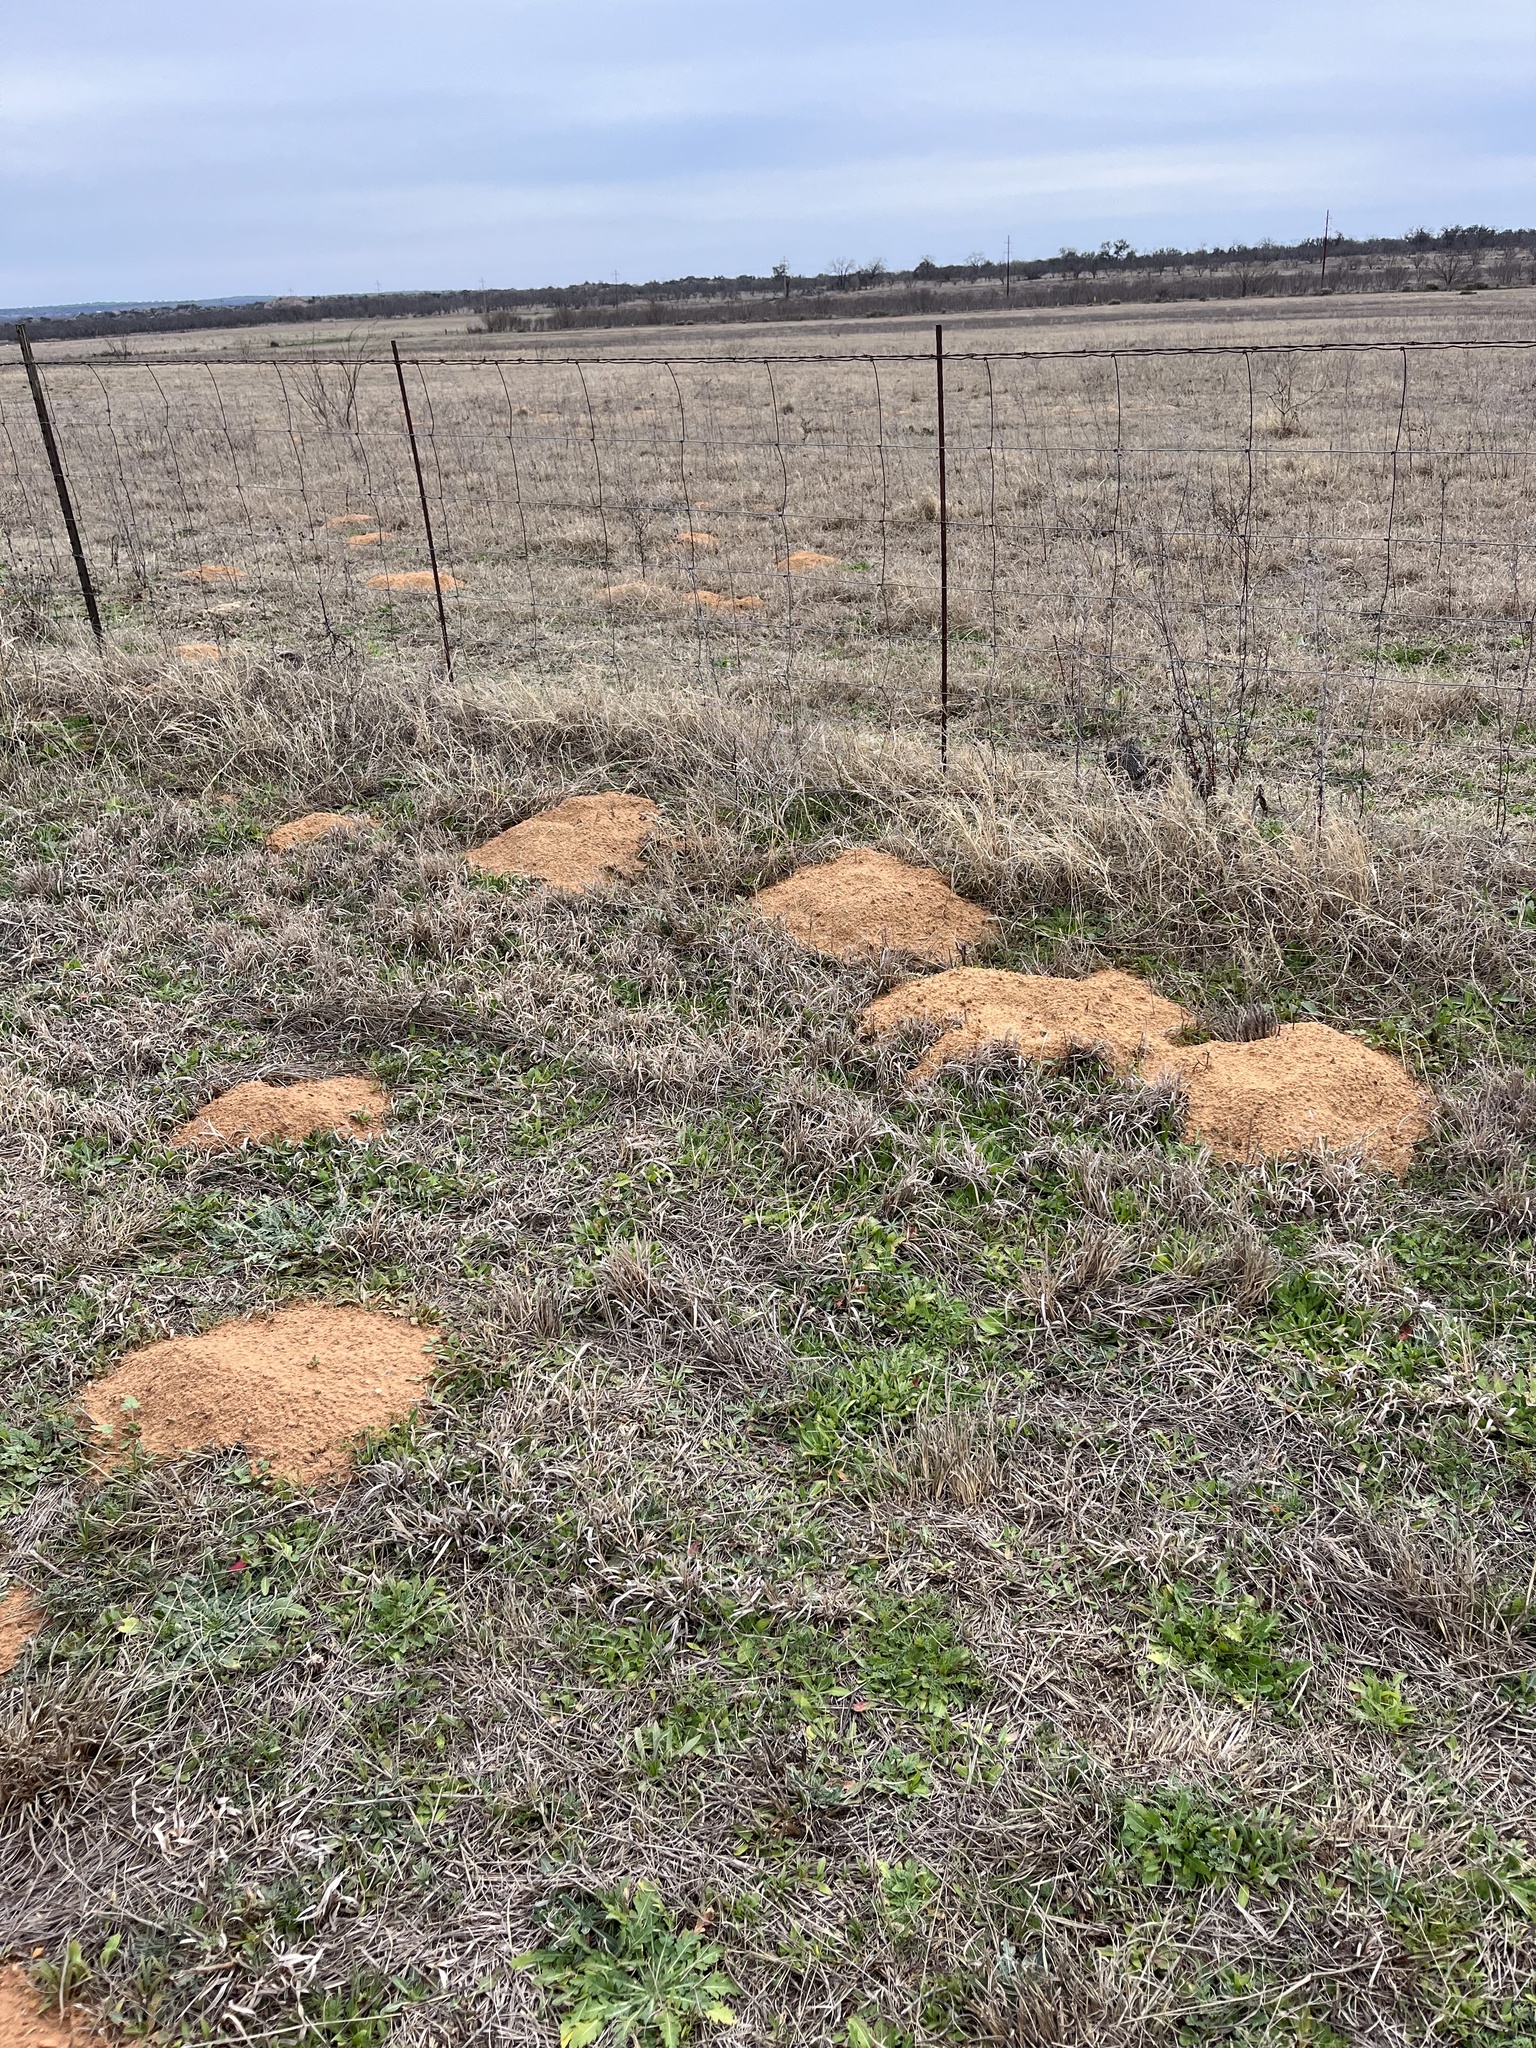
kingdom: Animalia
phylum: Chordata
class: Mammalia
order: Rodentia
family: Geomyidae
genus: Geomys
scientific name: Geomys texensis
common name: Llano pocket gopher
